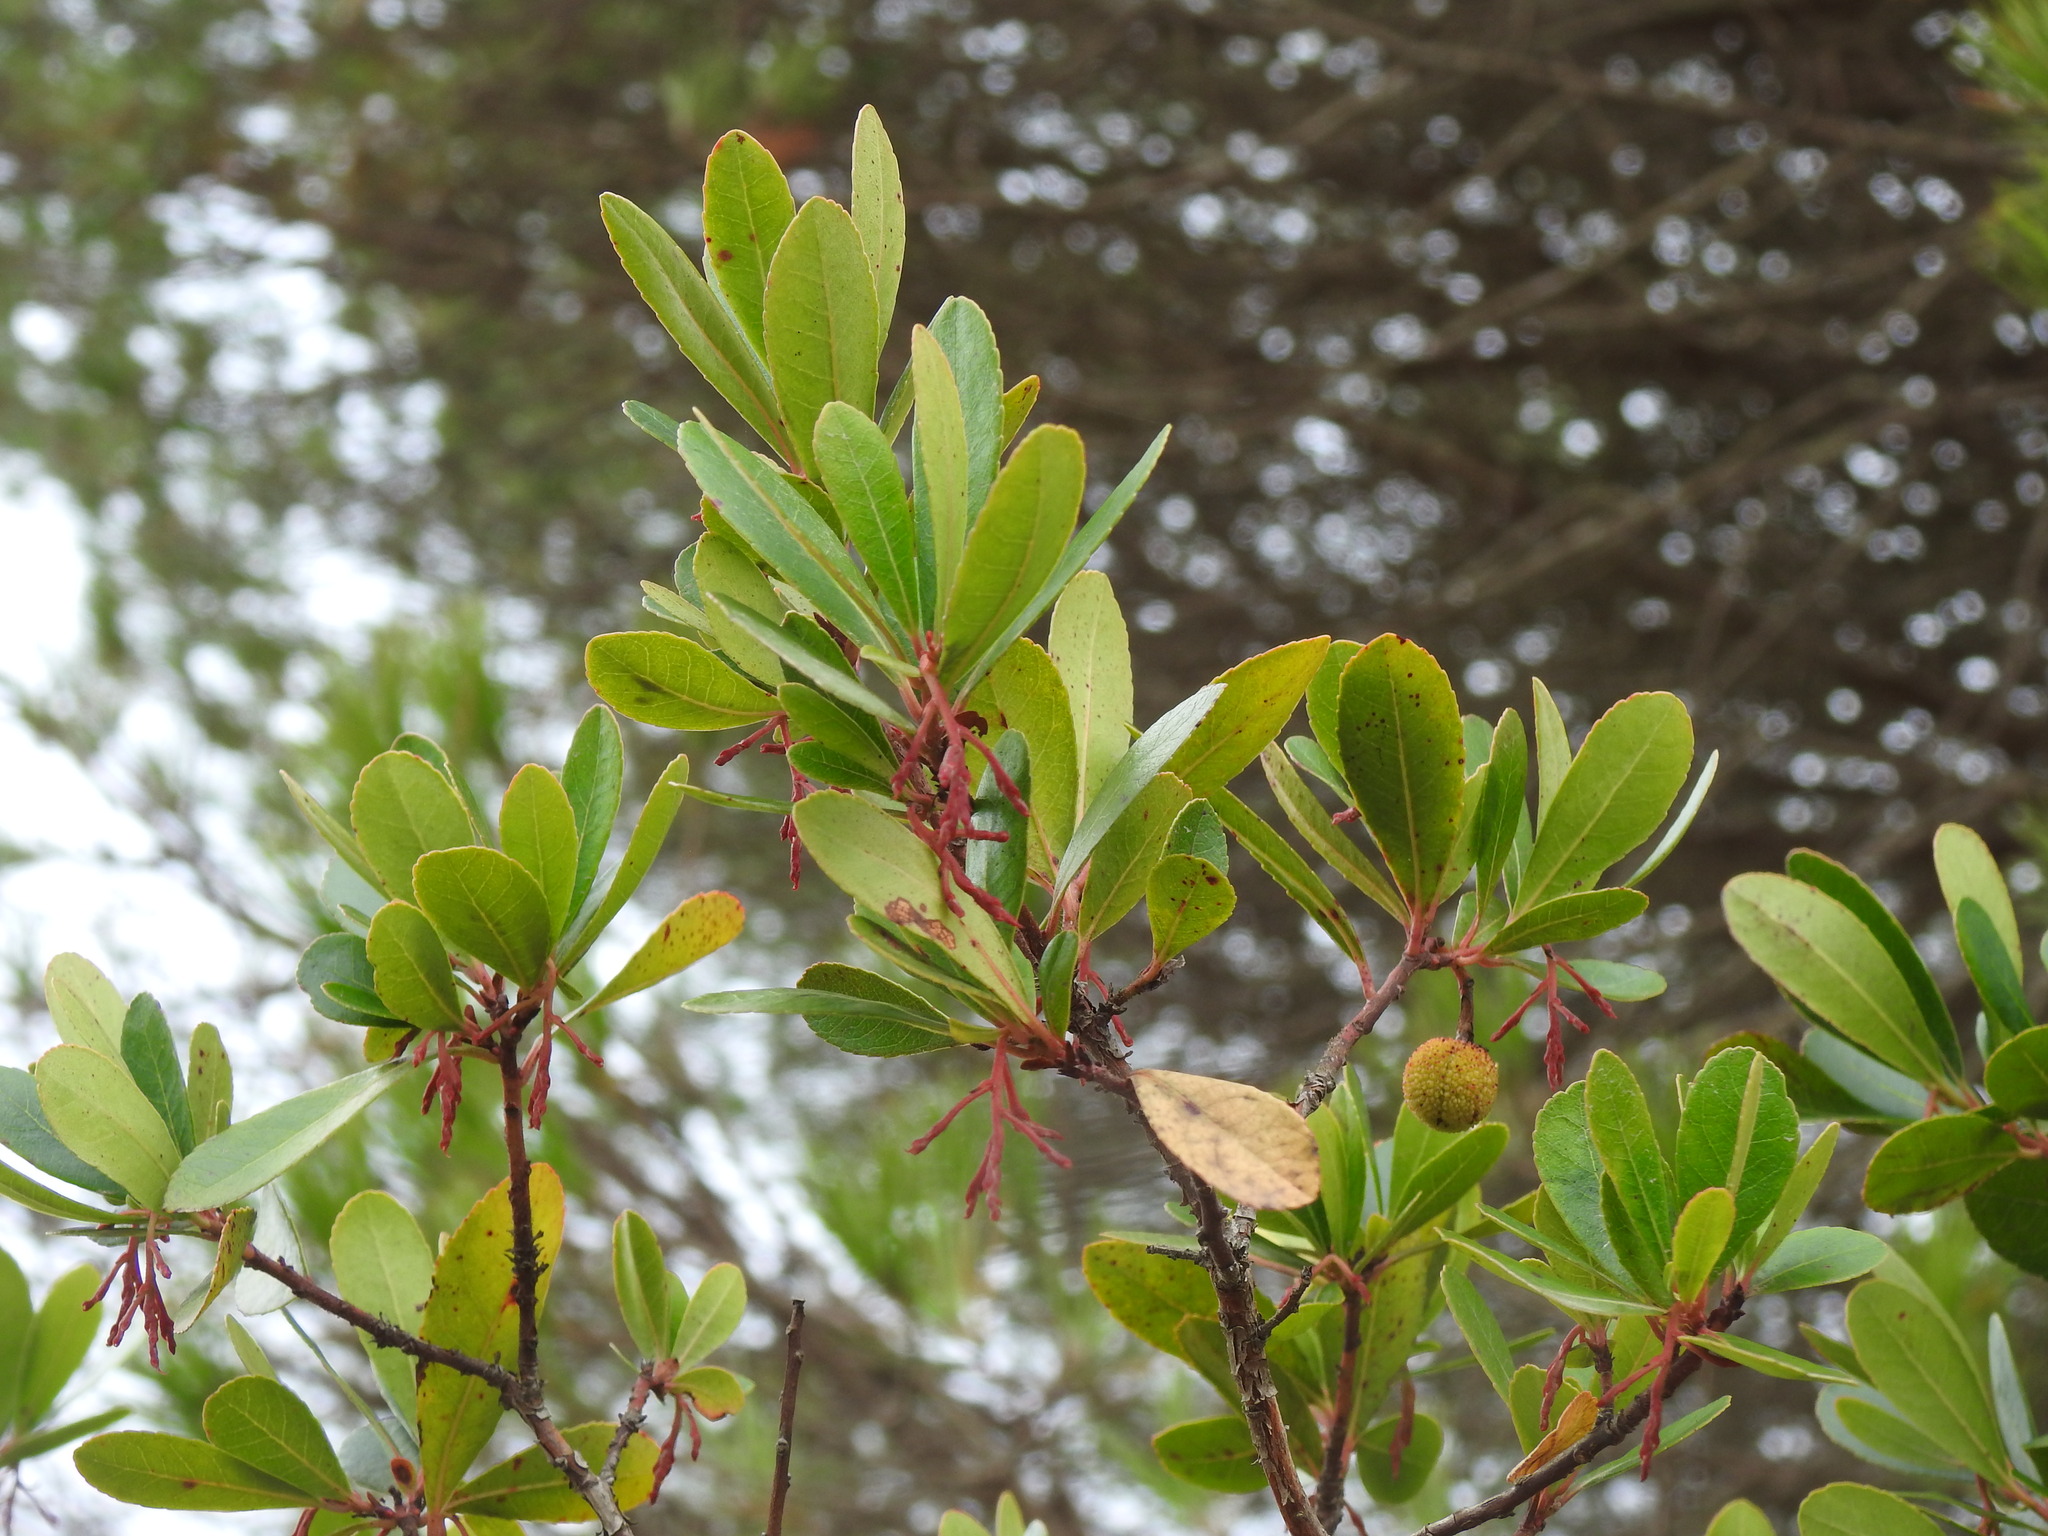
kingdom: Plantae
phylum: Tracheophyta
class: Magnoliopsida
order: Ericales
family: Ericaceae
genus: Arbutus
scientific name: Arbutus unedo
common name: Strawberry-tree
